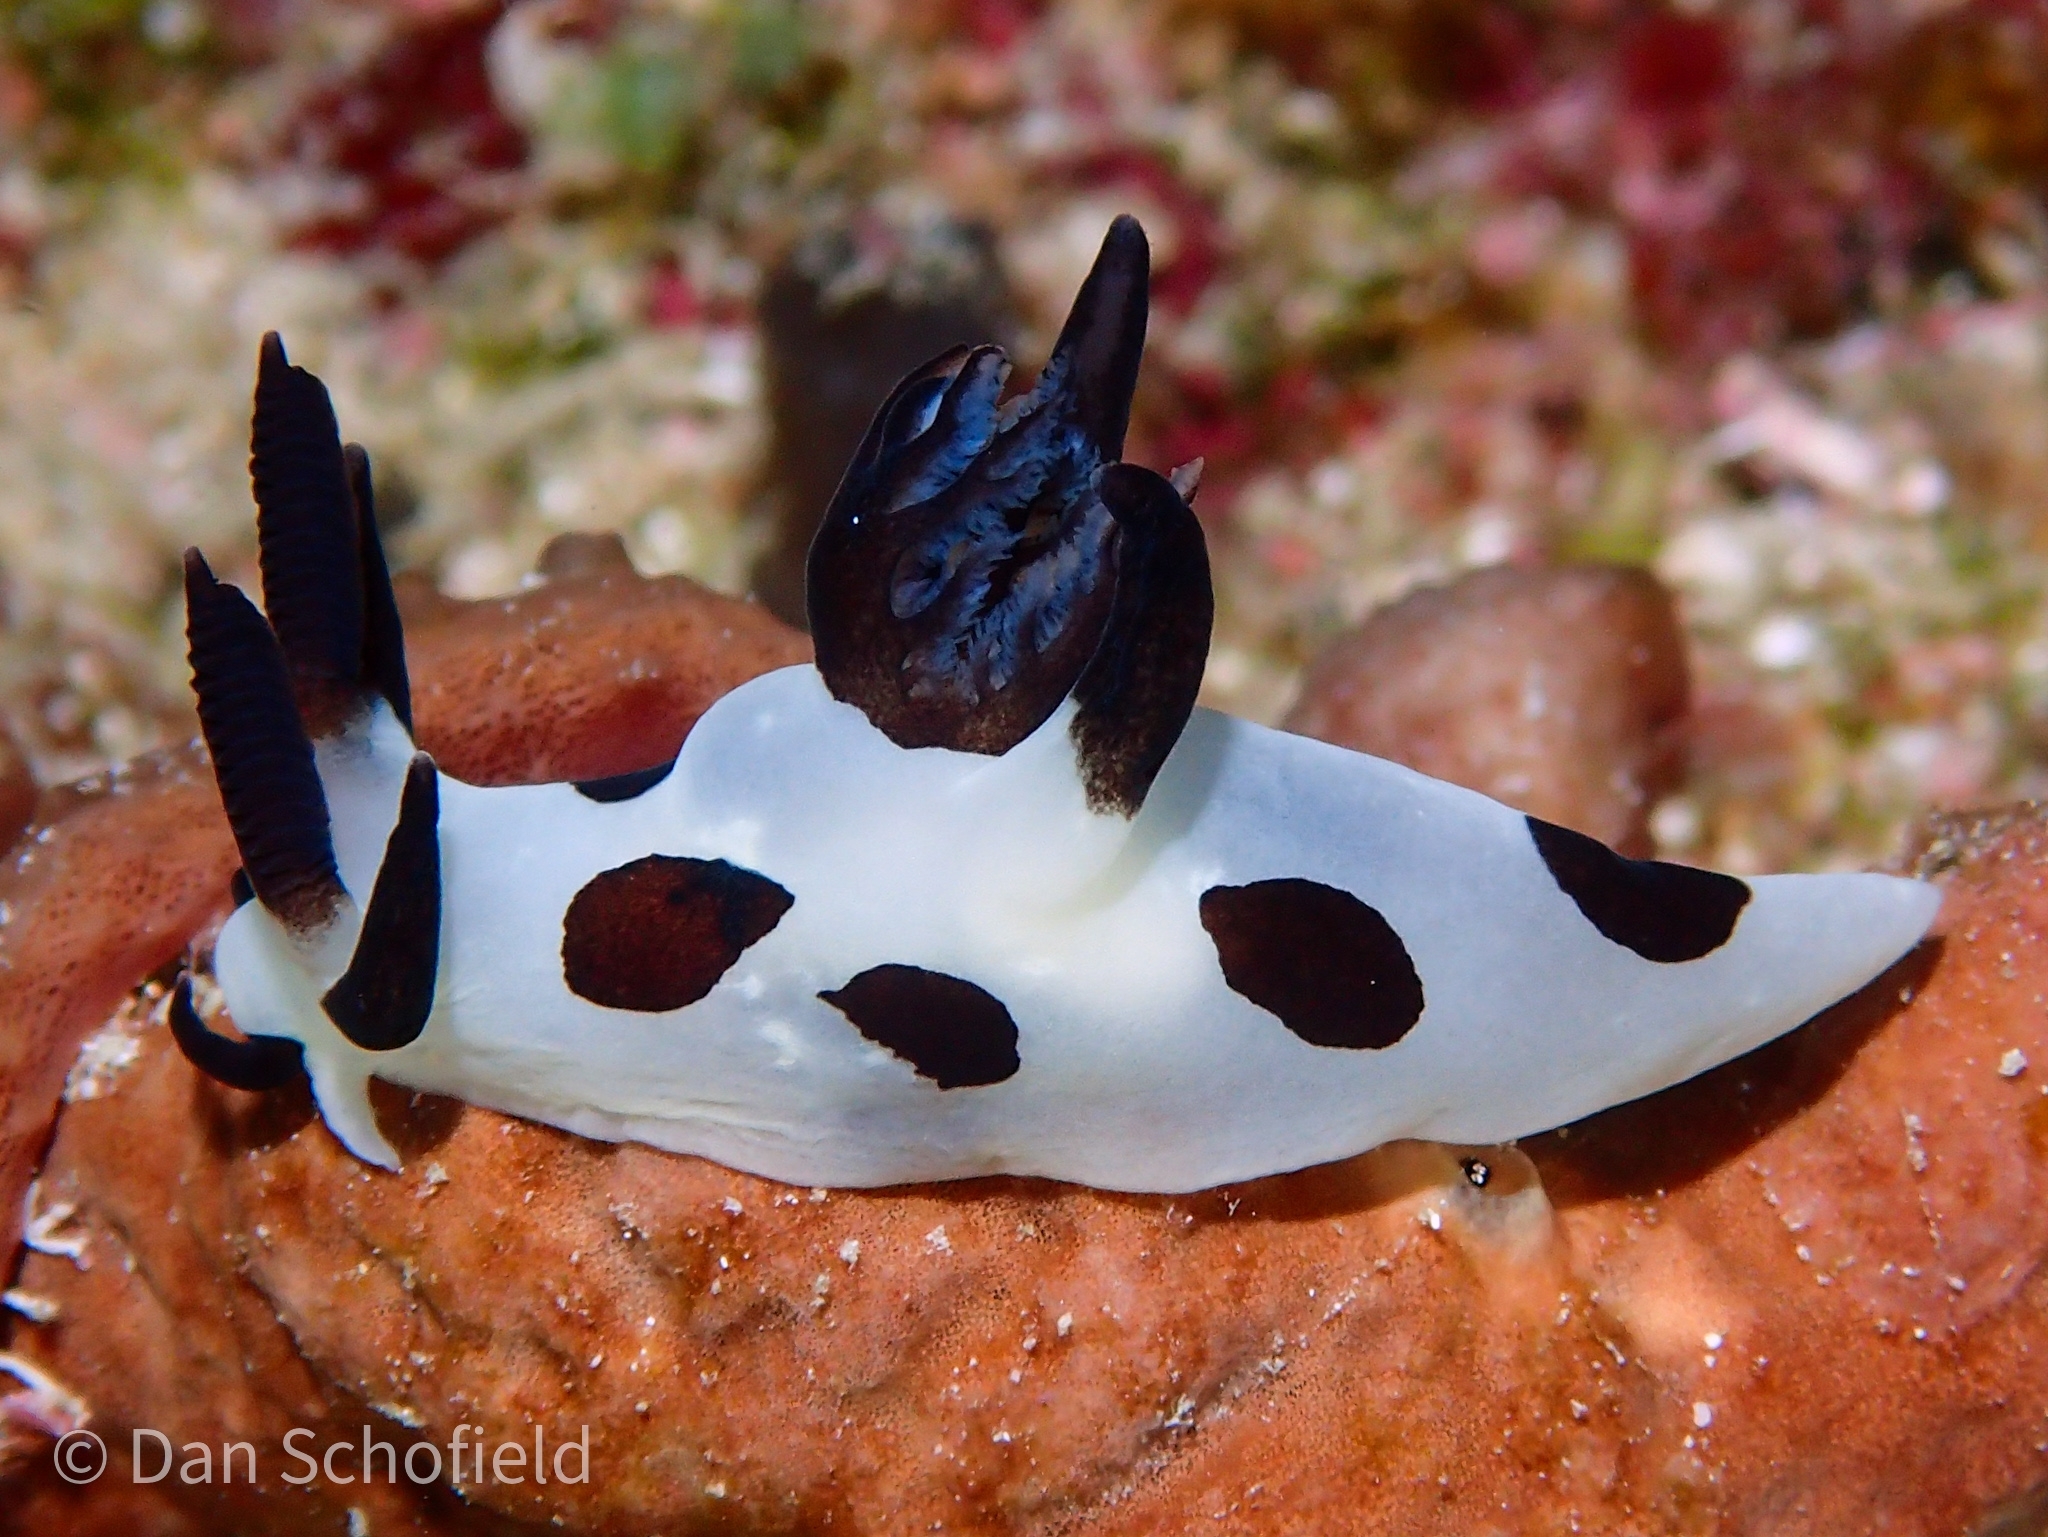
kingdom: Animalia
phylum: Mollusca
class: Gastropoda
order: Nudibranchia
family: Goniodorididae
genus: Trapania
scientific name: Trapania naeva
